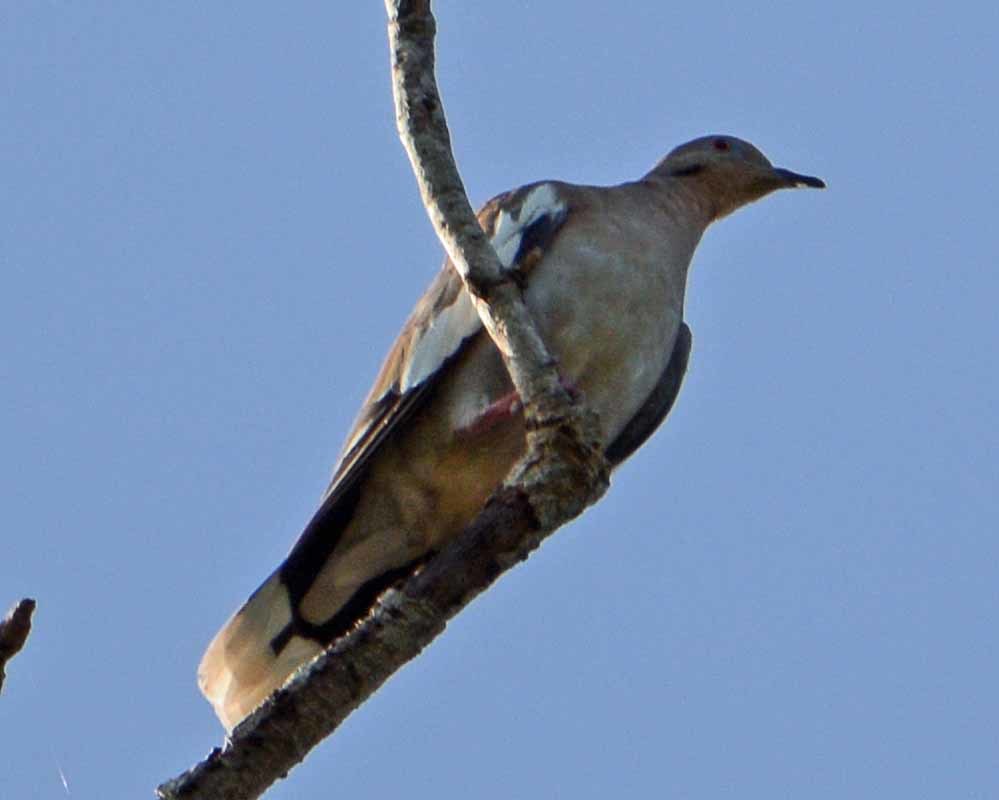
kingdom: Animalia
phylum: Chordata
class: Aves
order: Columbiformes
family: Columbidae
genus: Zenaida
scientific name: Zenaida asiatica
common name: White-winged dove
